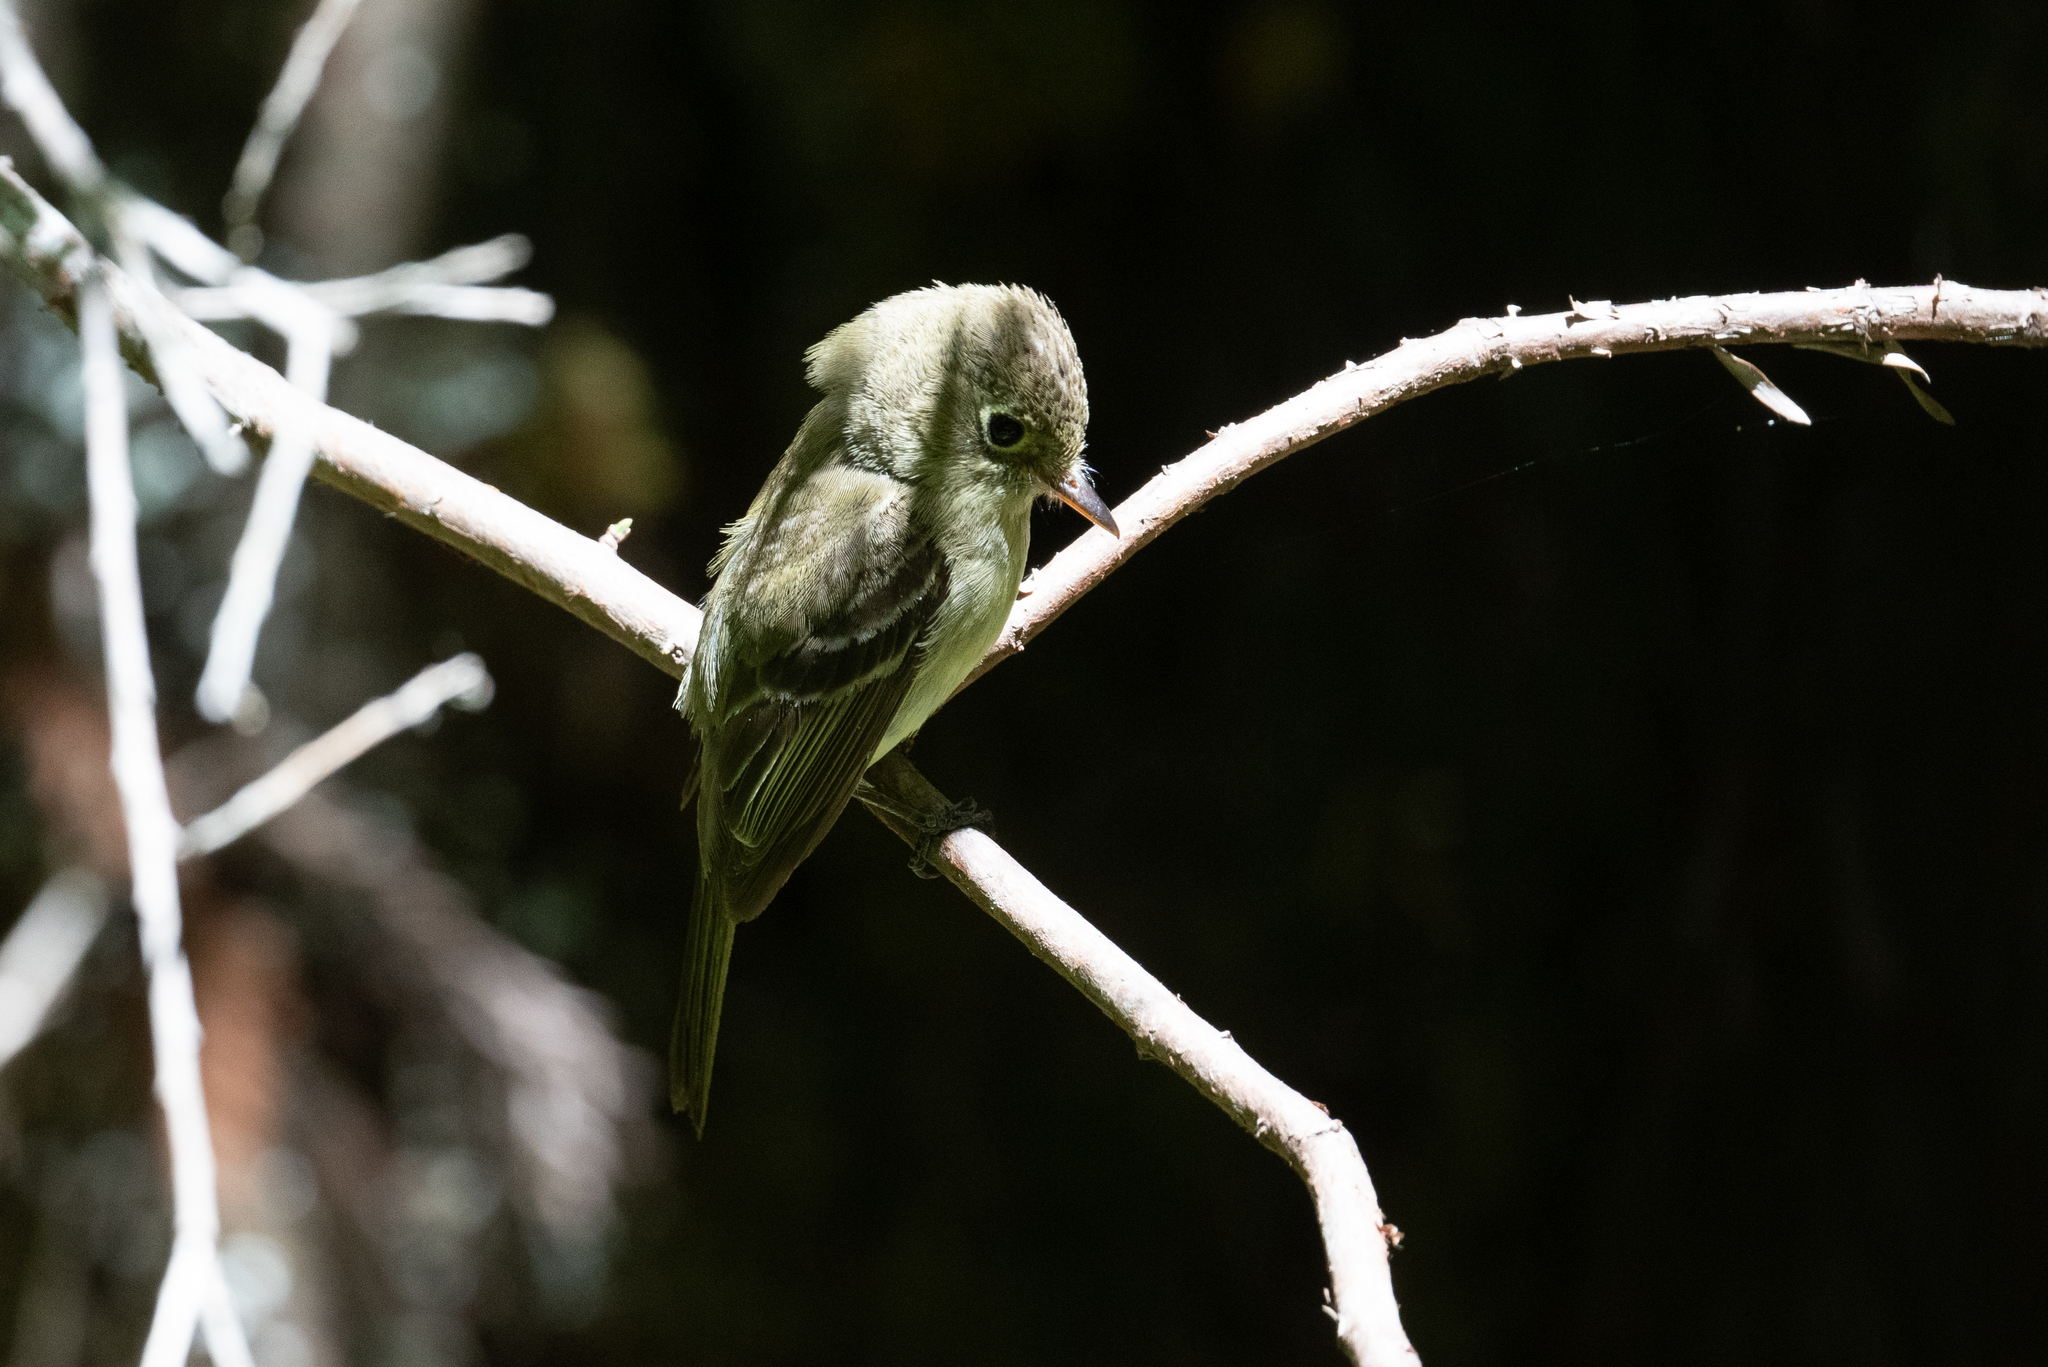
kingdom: Animalia
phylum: Chordata
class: Aves
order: Passeriformes
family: Tyrannidae
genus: Empidonax
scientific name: Empidonax difficilis
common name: Pacific-slope flycatcher
